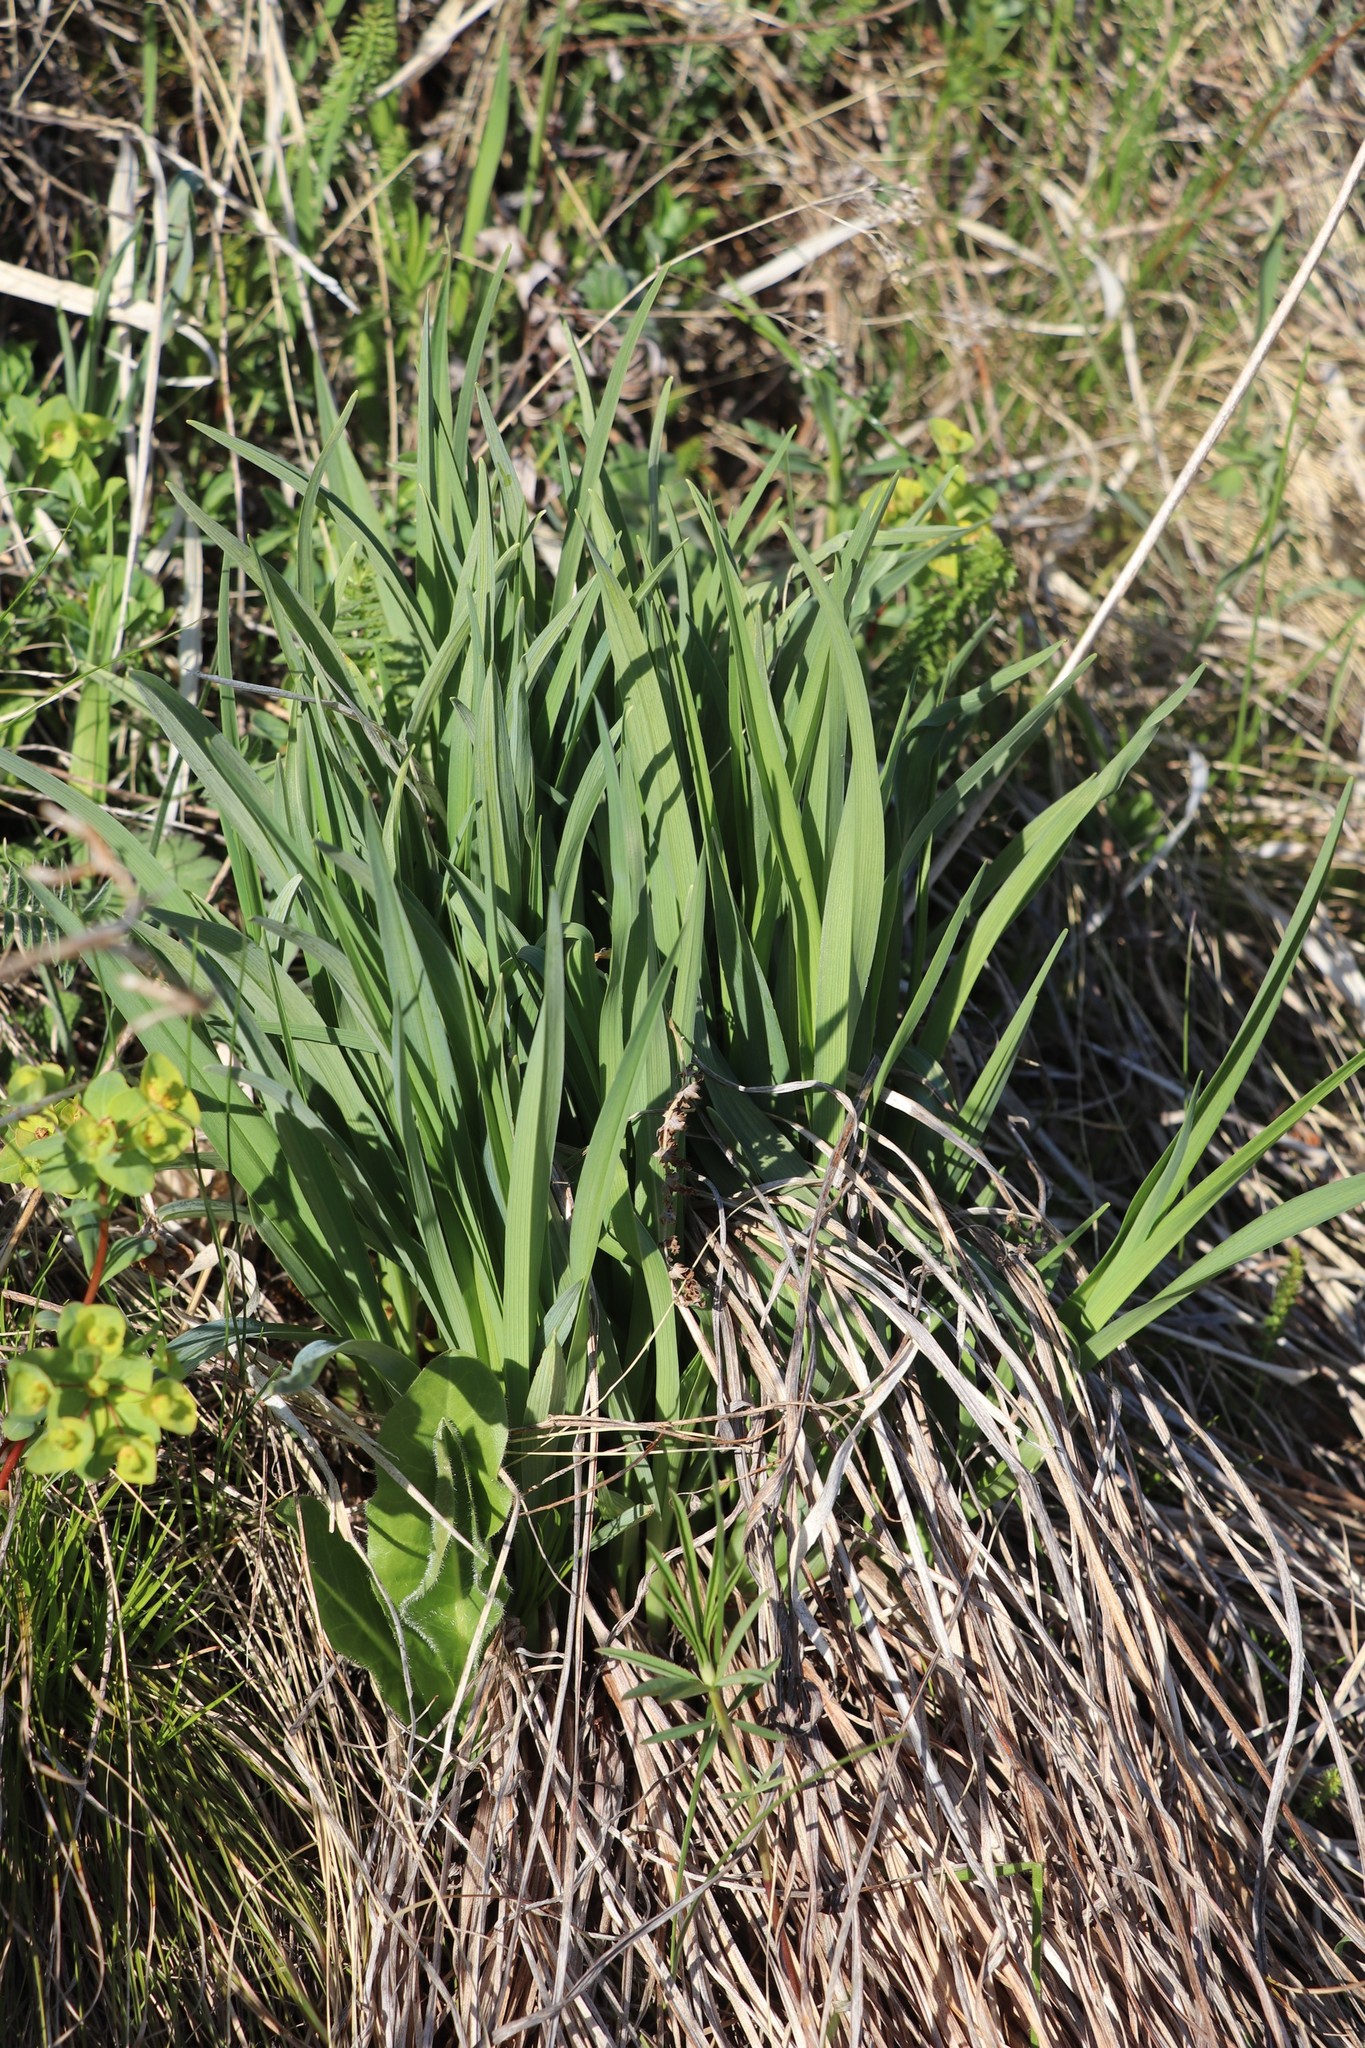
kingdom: Plantae
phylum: Tracheophyta
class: Liliopsida
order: Asparagales
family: Asphodelaceae
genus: Hemerocallis
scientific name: Hemerocallis minor
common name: Small daylily
